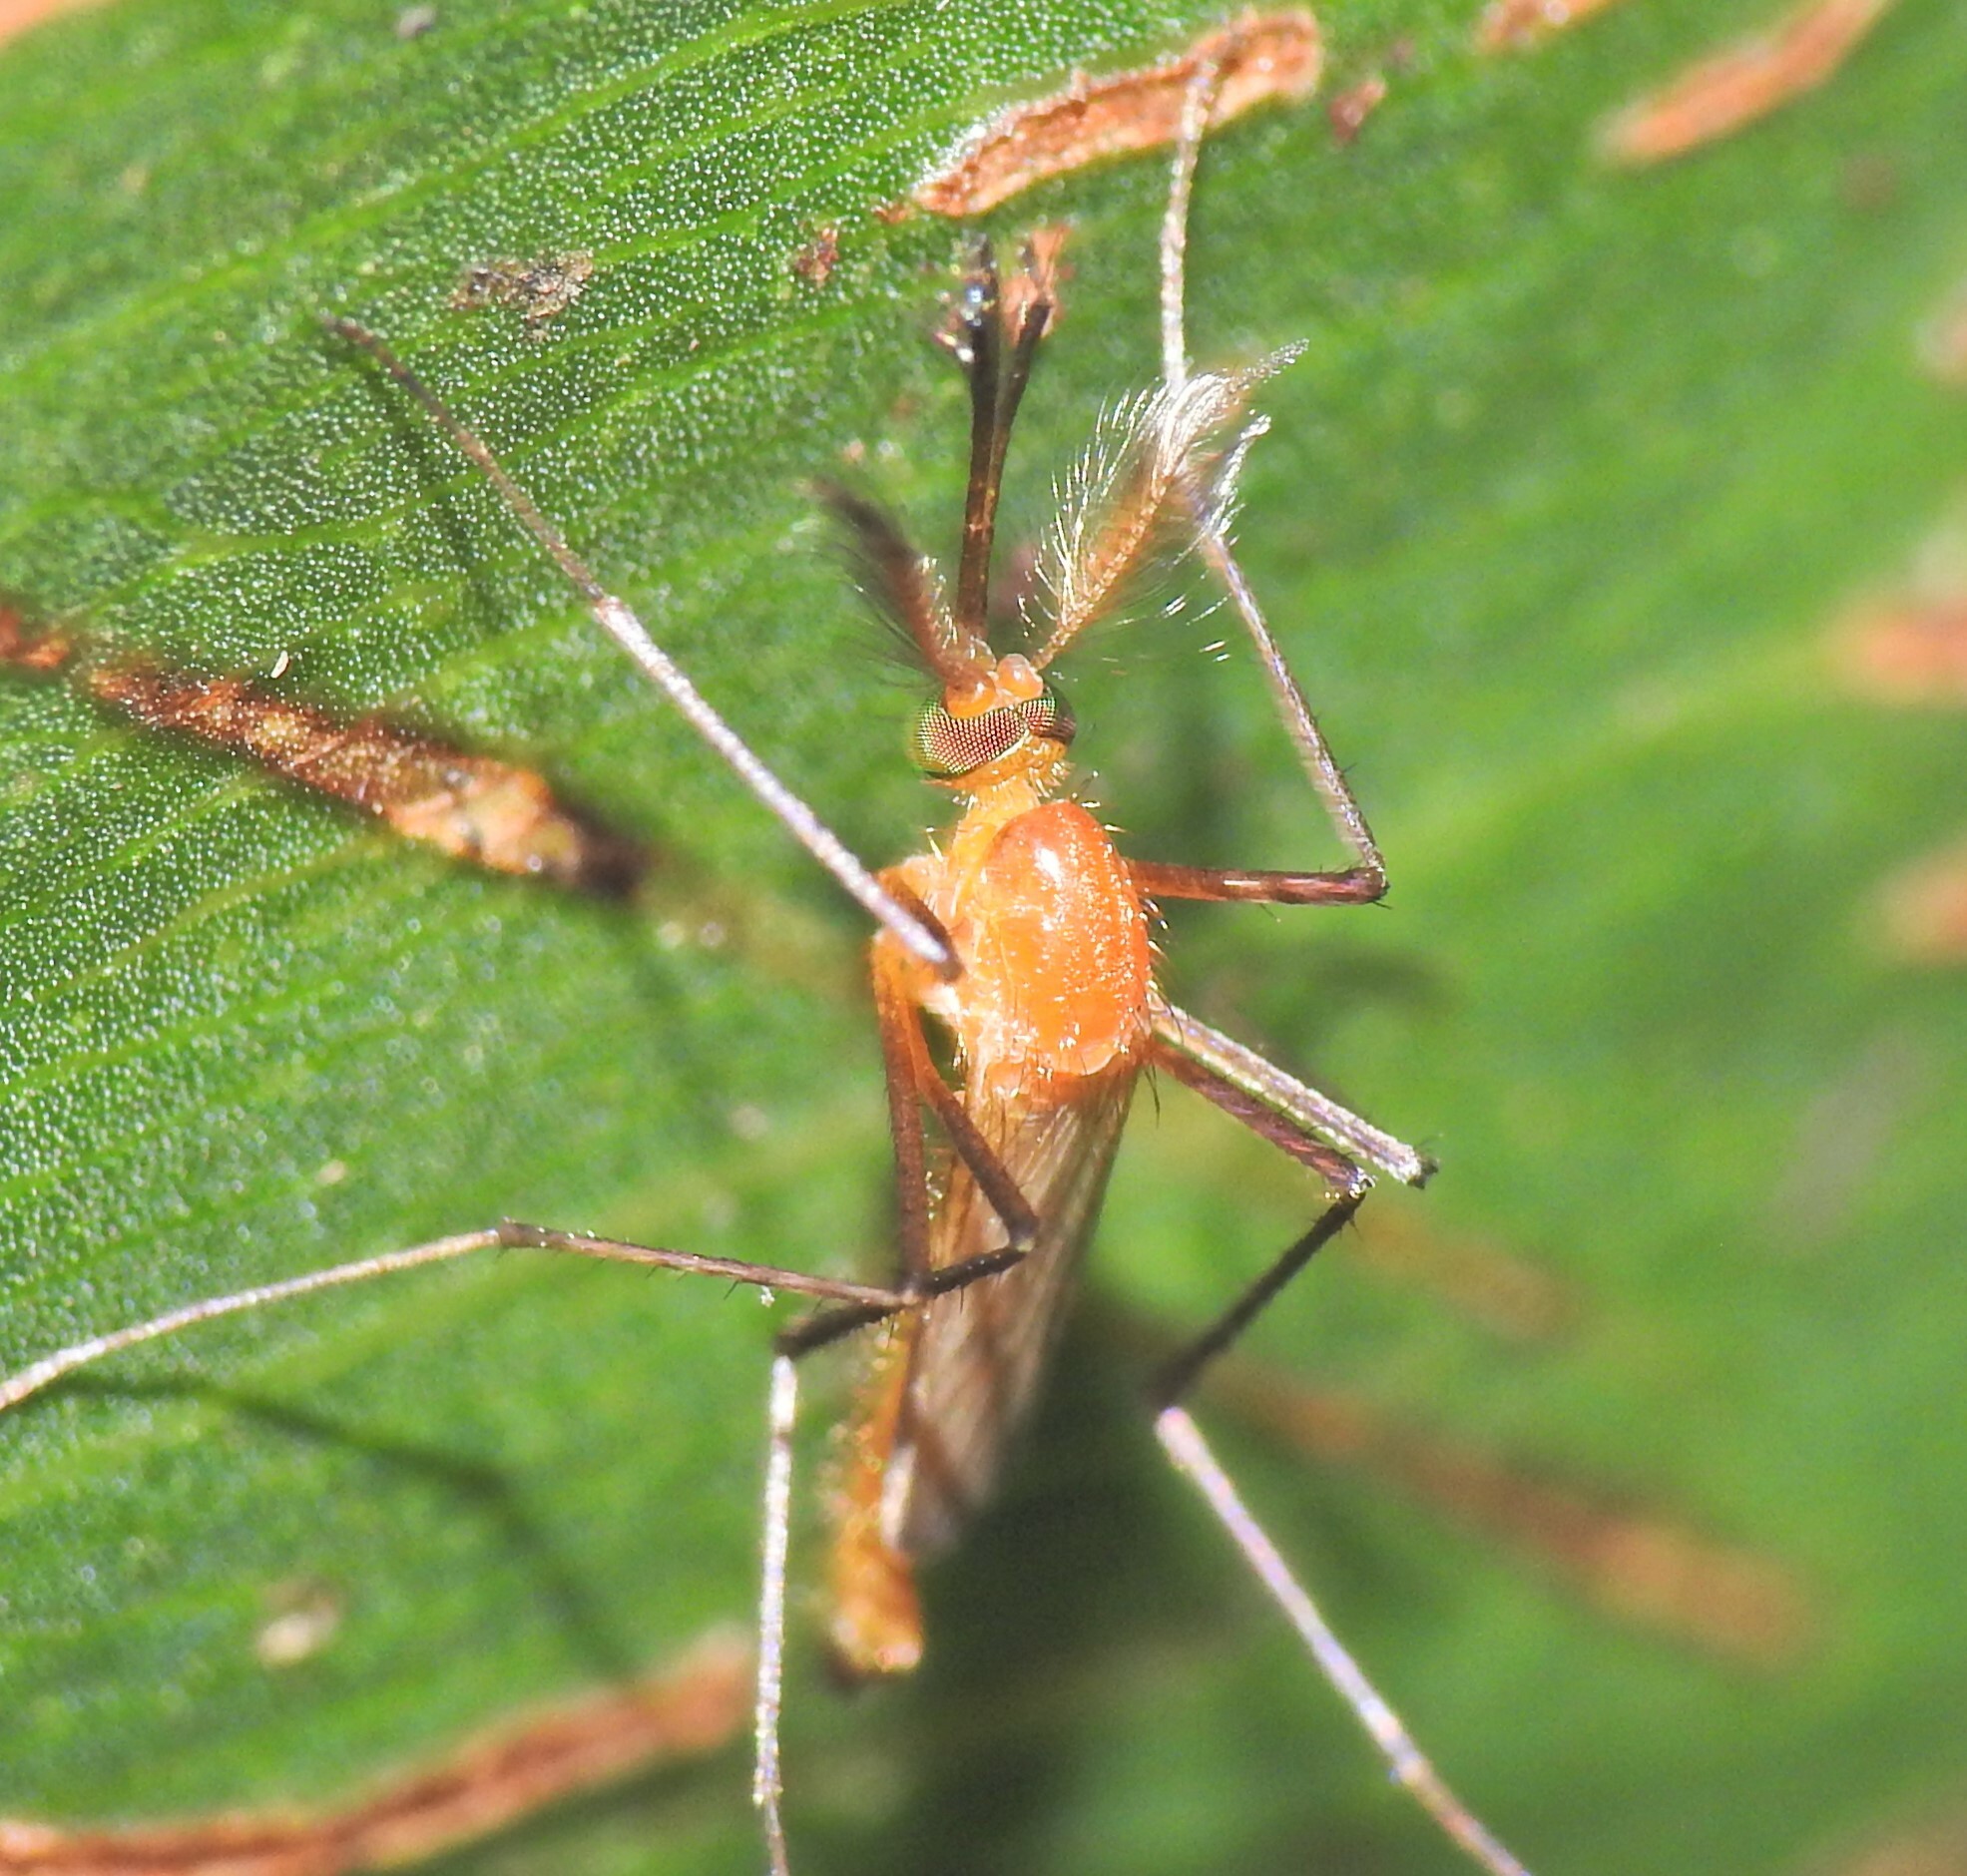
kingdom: Animalia
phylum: Arthropoda
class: Insecta
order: Diptera
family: Culicidae
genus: Coquillettidia
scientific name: Coquillettidia xanthogaster
